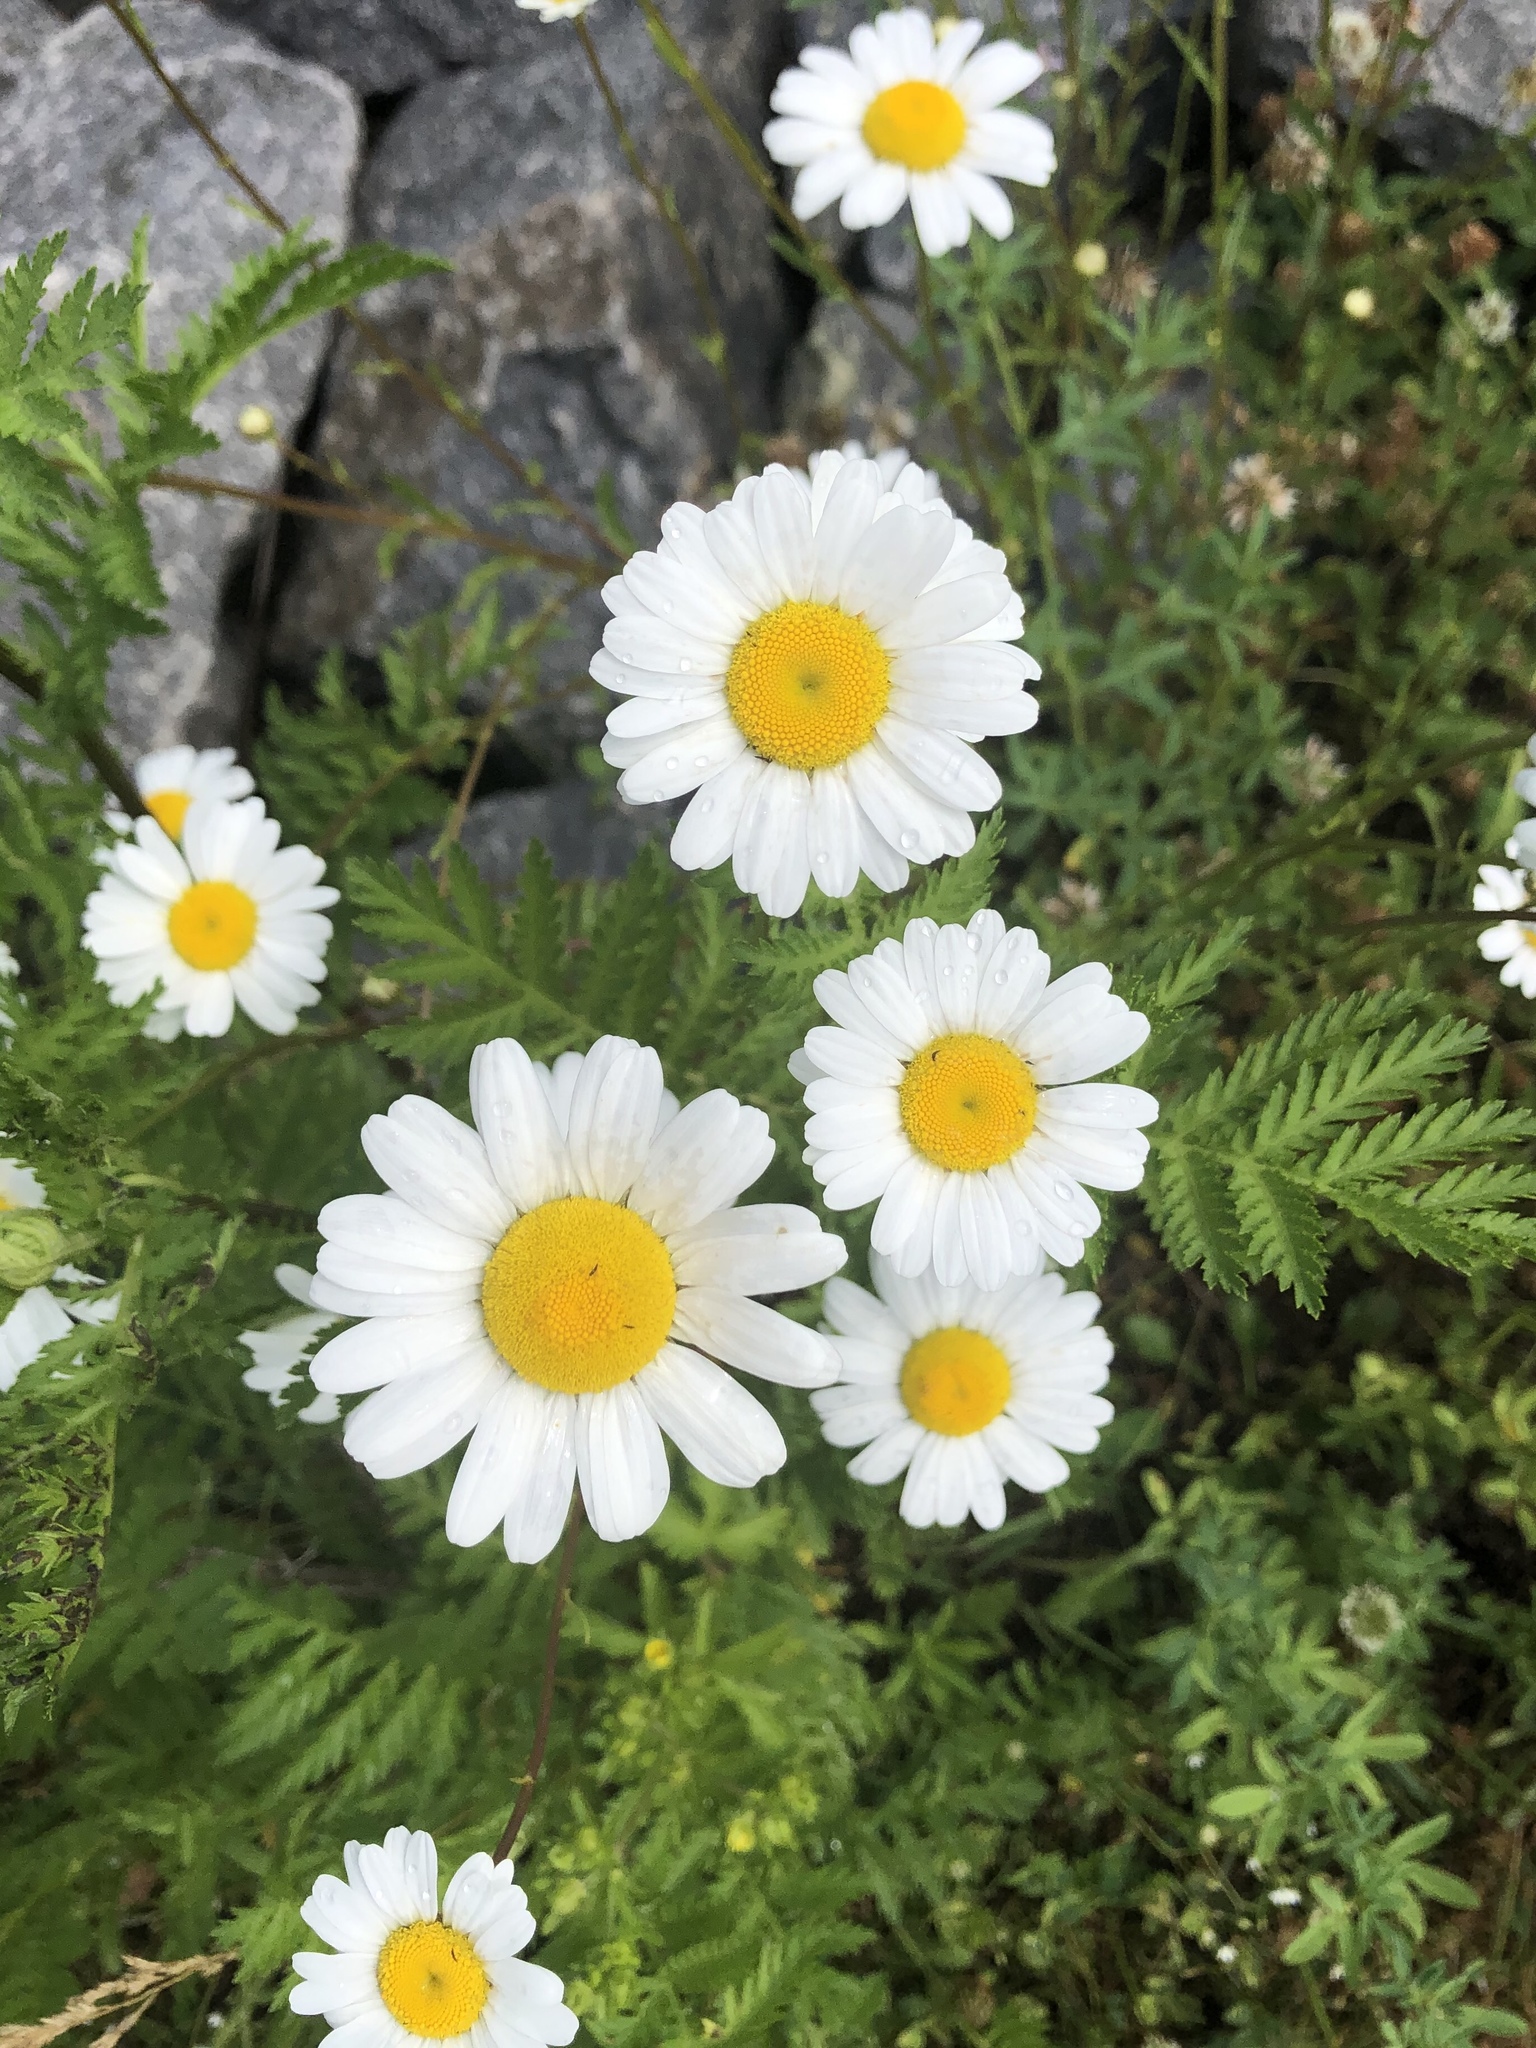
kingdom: Plantae
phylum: Tracheophyta
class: Magnoliopsida
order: Asterales
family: Asteraceae
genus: Leucanthemum
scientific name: Leucanthemum vulgare
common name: Oxeye daisy
